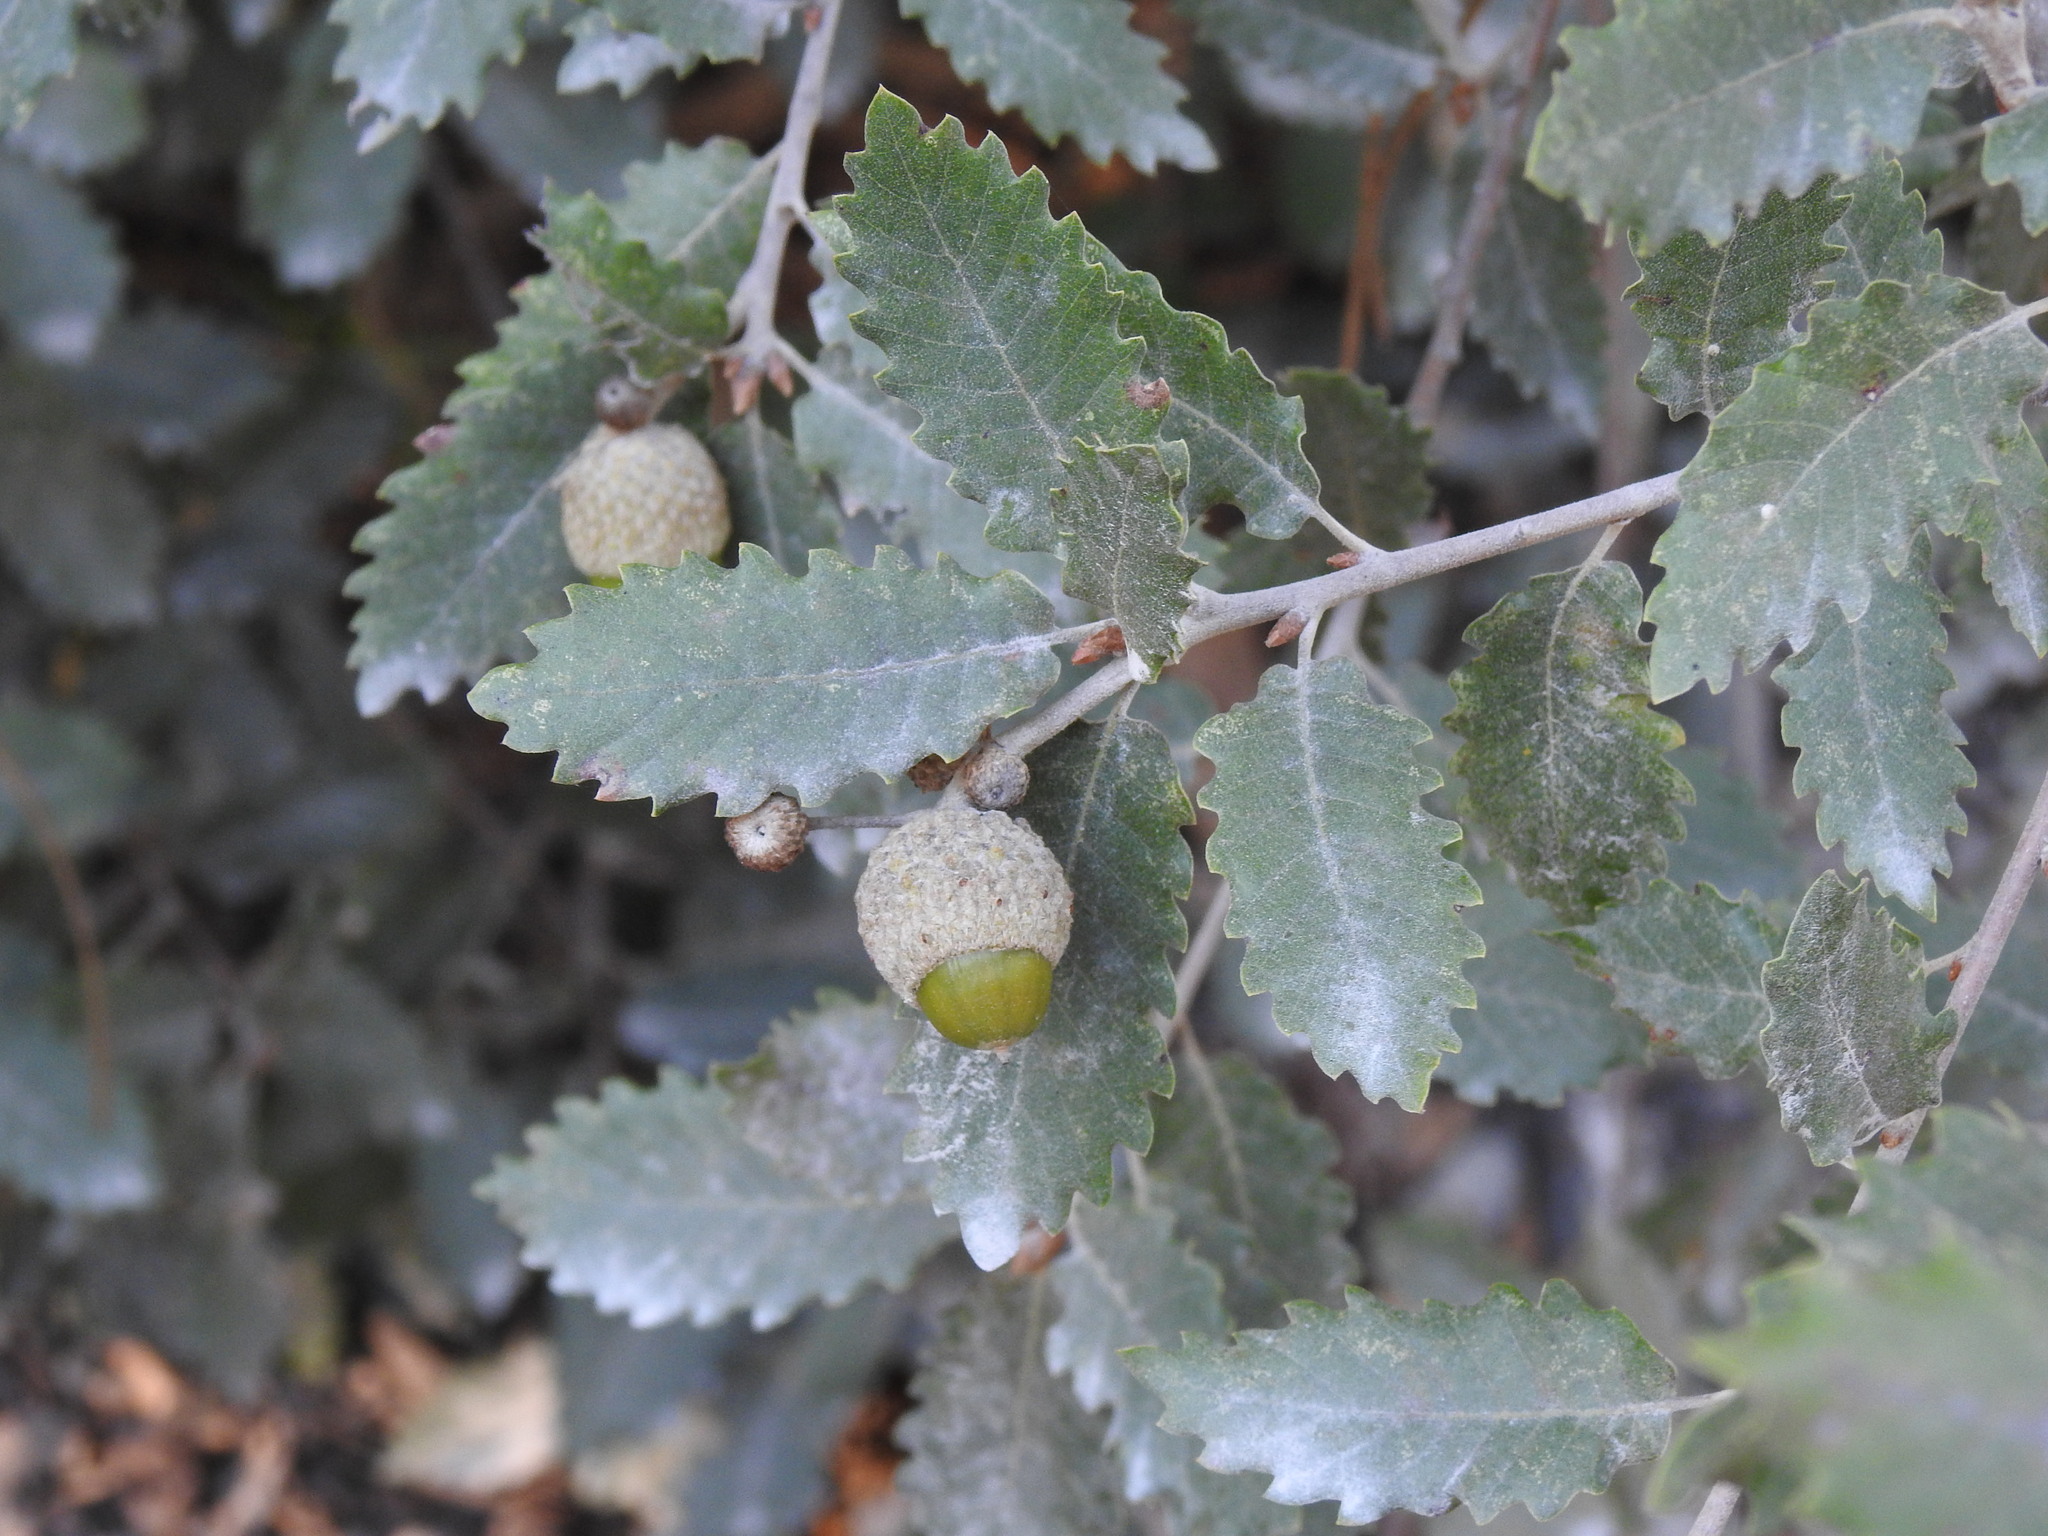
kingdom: Plantae
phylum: Tracheophyta
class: Magnoliopsida
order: Fagales
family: Fagaceae
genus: Quercus
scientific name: Quercus faginea
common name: Gall oak tree
